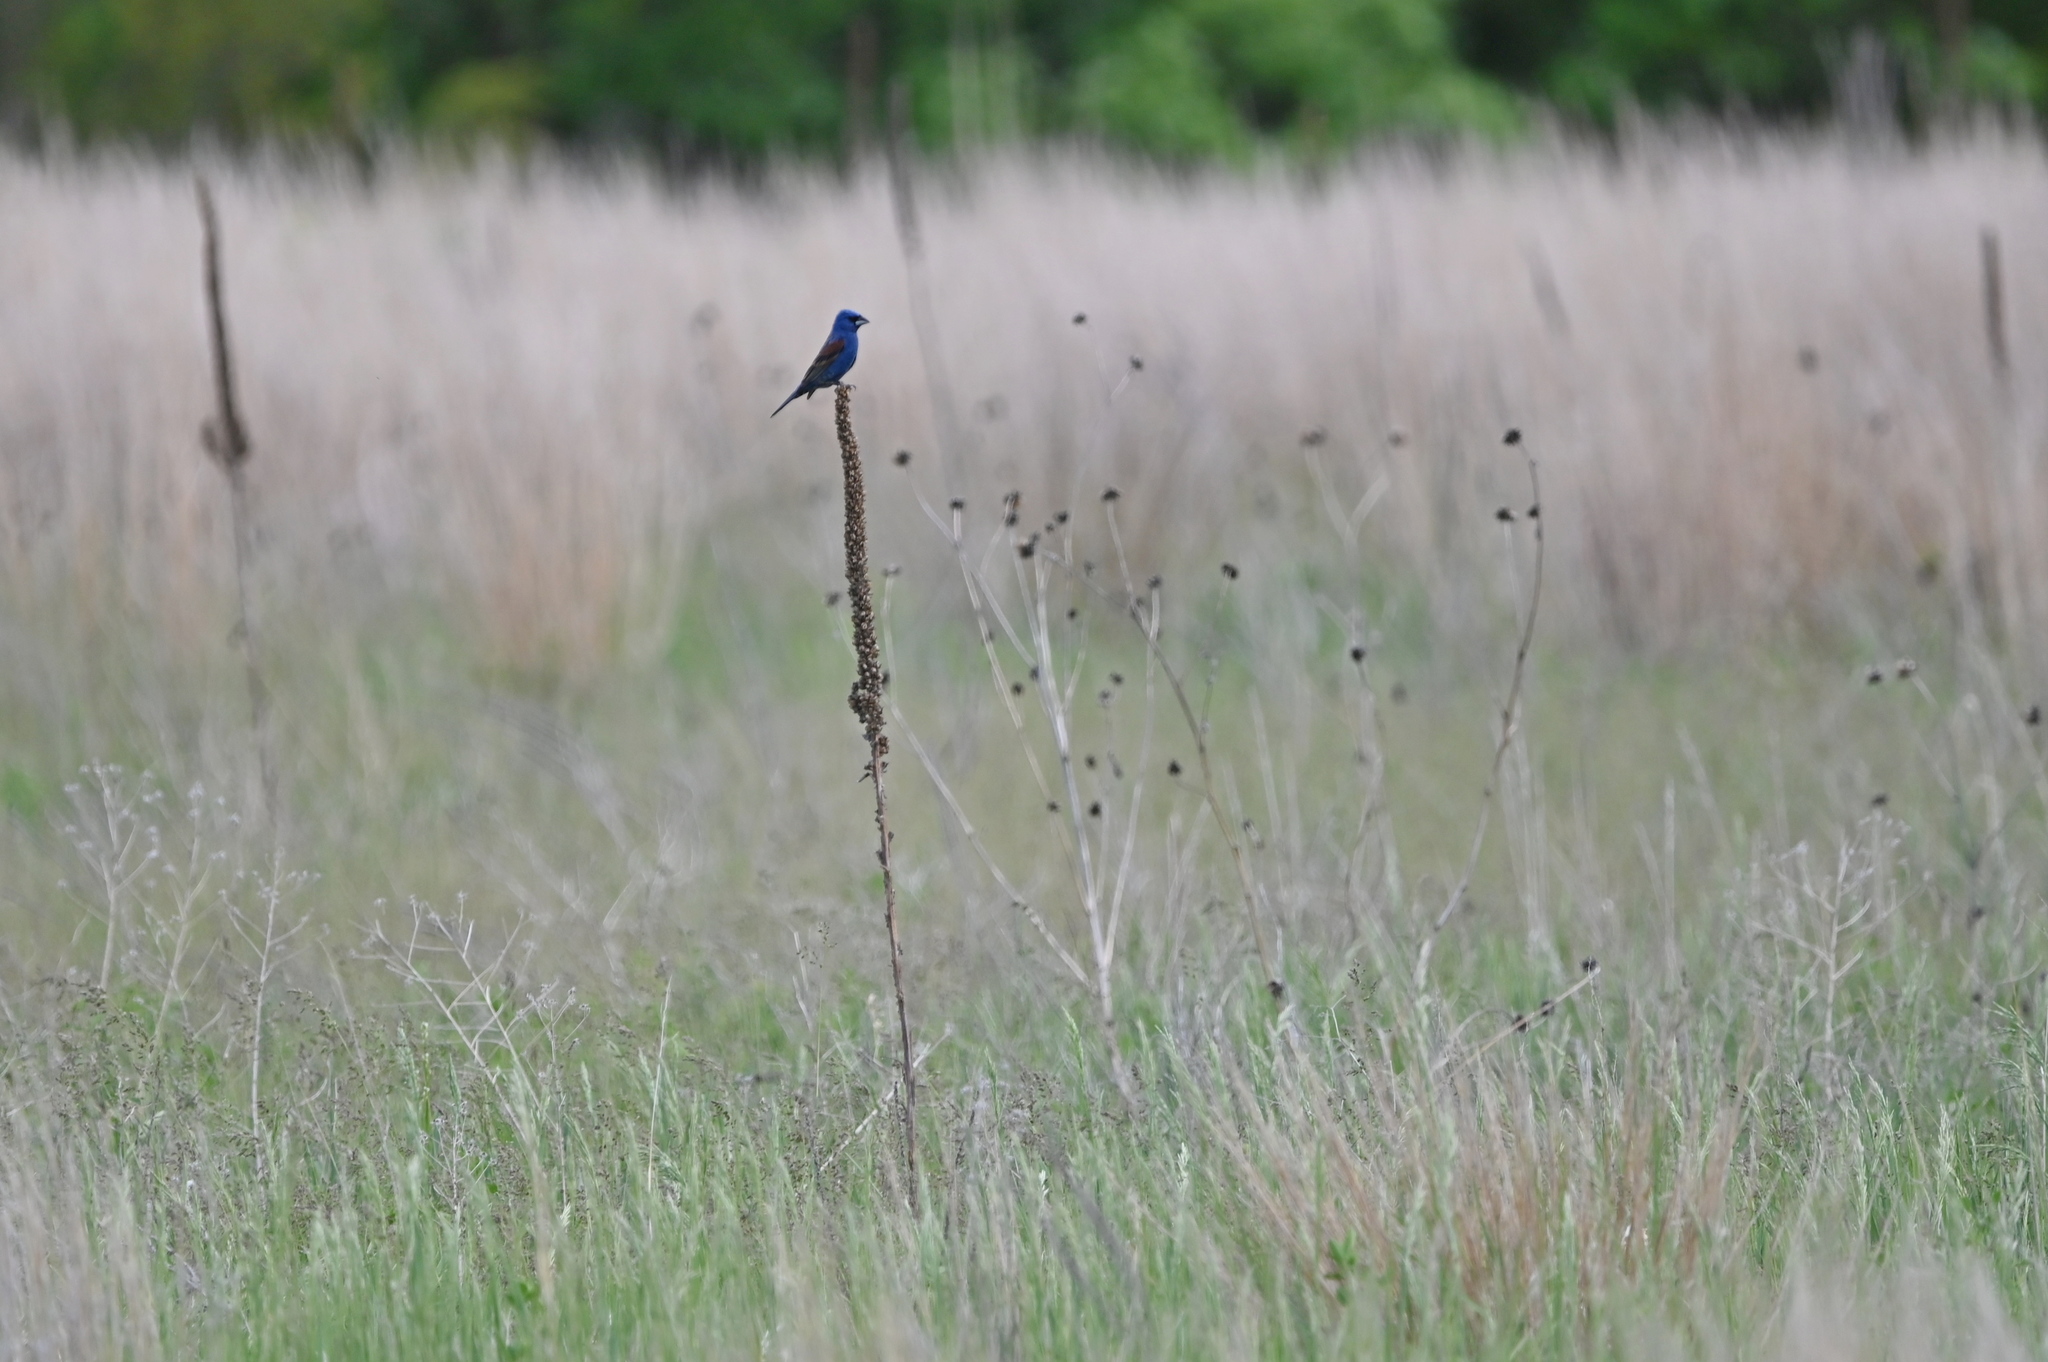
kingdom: Animalia
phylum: Chordata
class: Aves
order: Passeriformes
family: Cardinalidae
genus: Passerina
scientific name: Passerina caerulea
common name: Blue grosbeak
